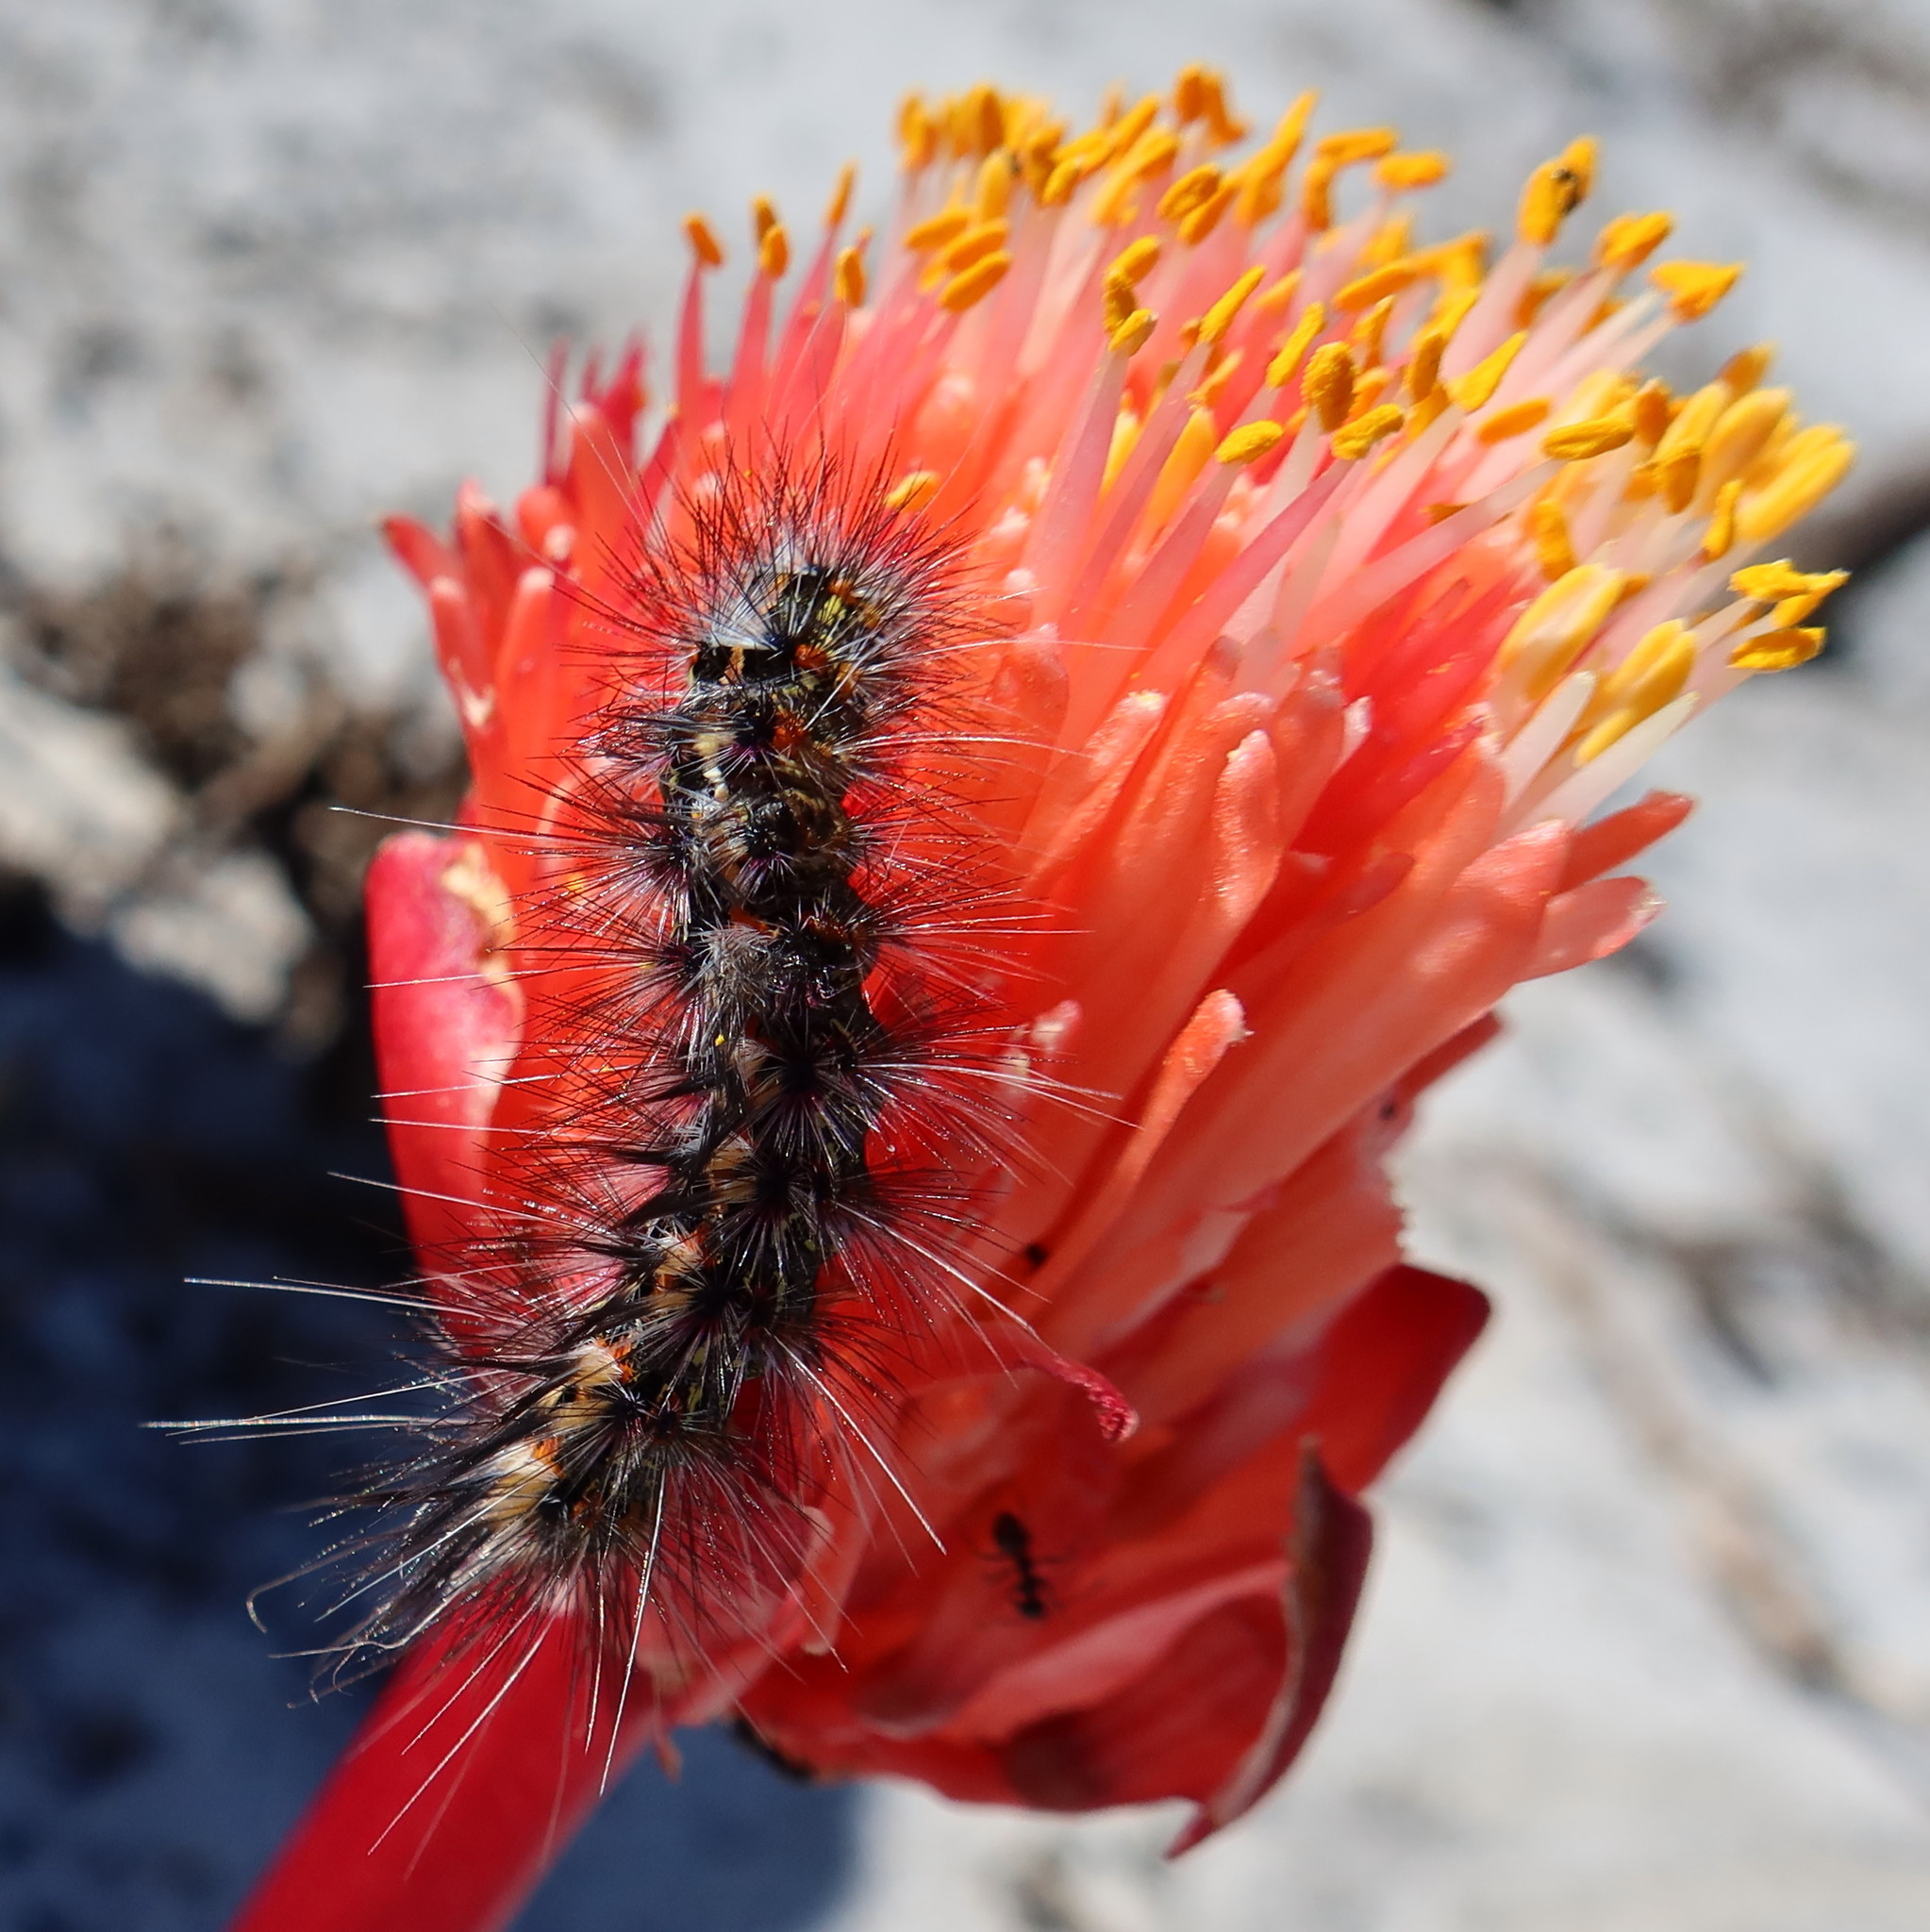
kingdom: Animalia
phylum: Arthropoda
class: Insecta
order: Lepidoptera
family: Erebidae
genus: Paralacydes
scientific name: Paralacydes vocula
